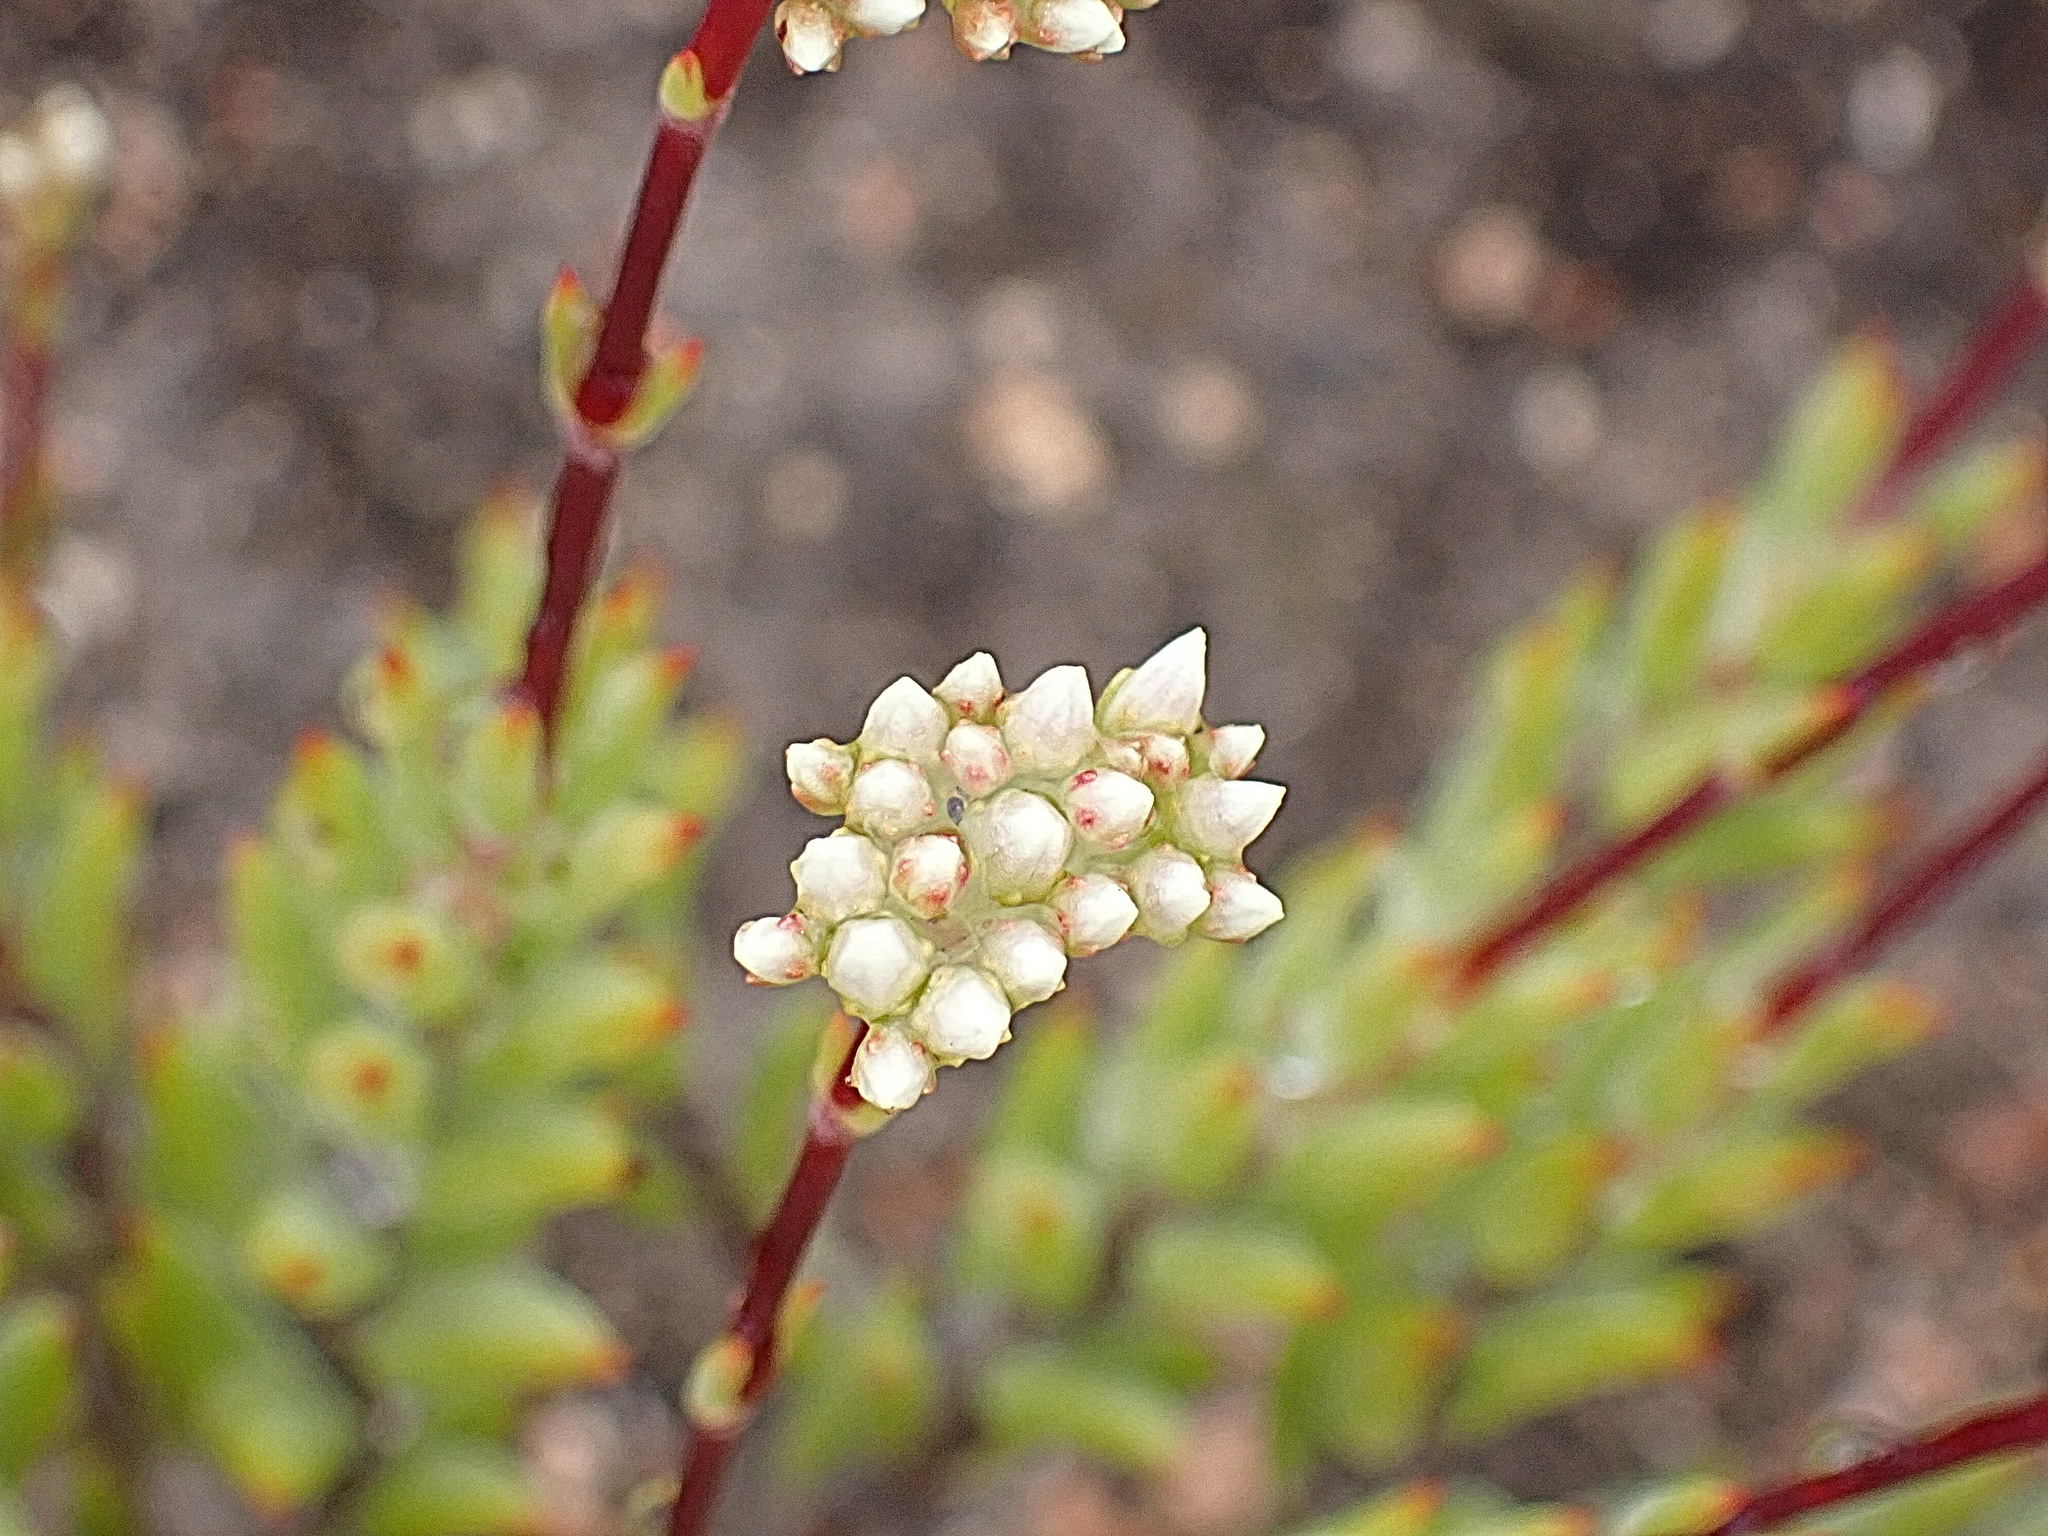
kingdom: Plantae
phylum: Tracheophyta
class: Magnoliopsida
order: Saxifragales
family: Crassulaceae
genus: Crassula
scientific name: Crassula biplanata
